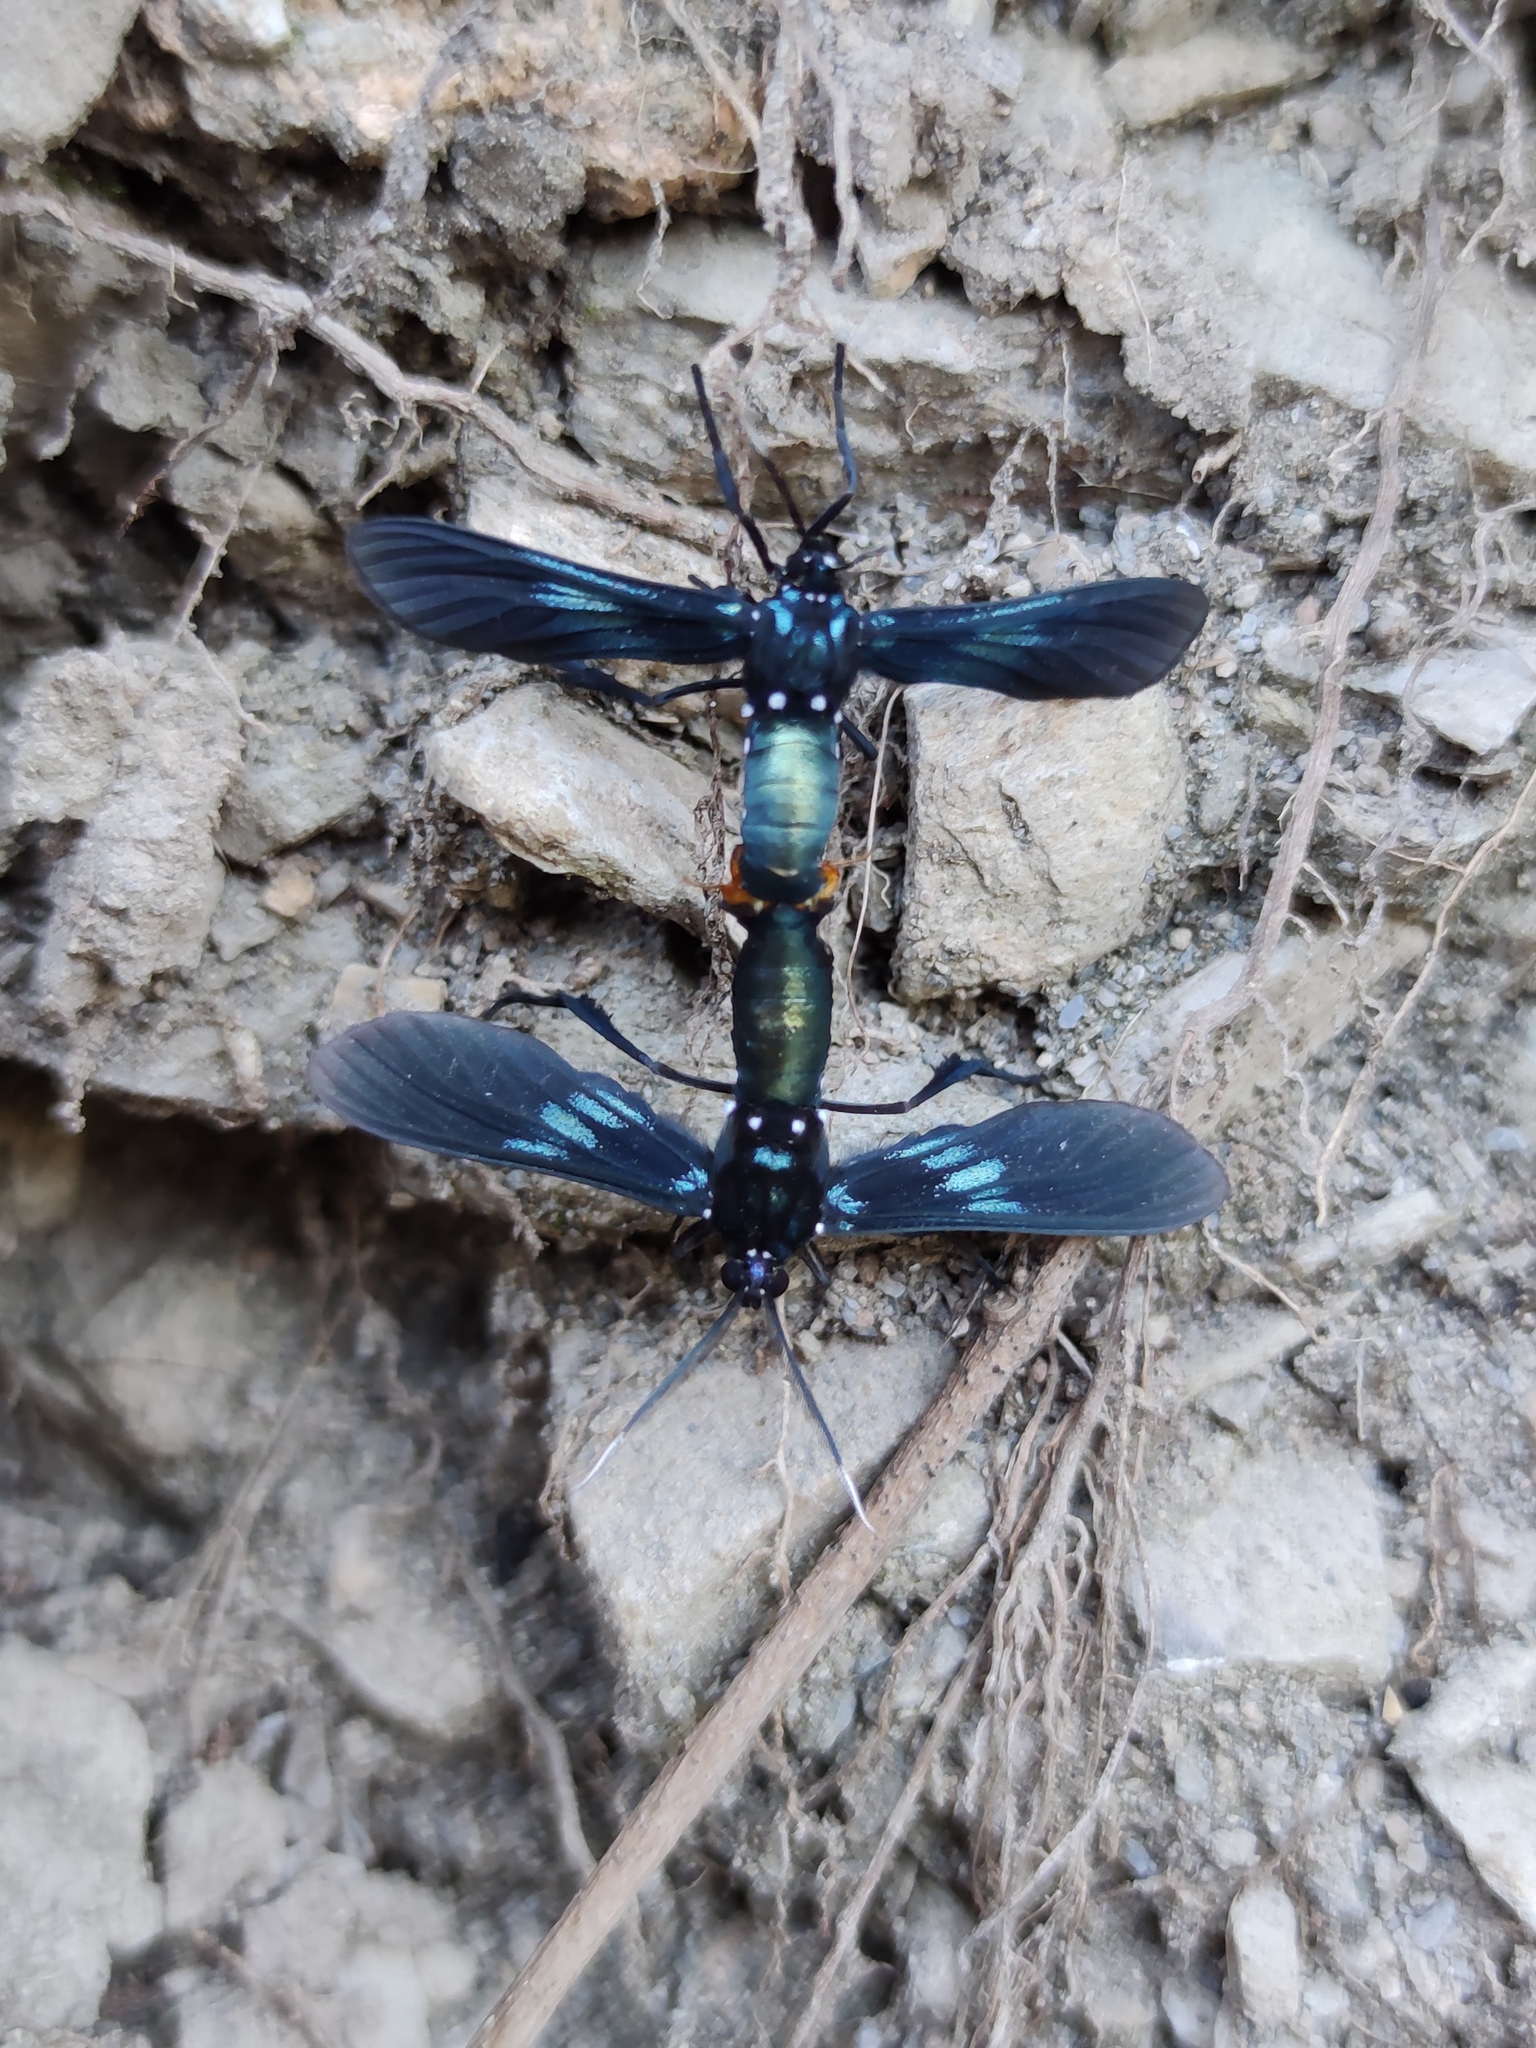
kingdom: Animalia
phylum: Arthropoda
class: Insecta
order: Lepidoptera
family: Erebidae
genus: Macrocneme
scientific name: Macrocneme chrysitis
